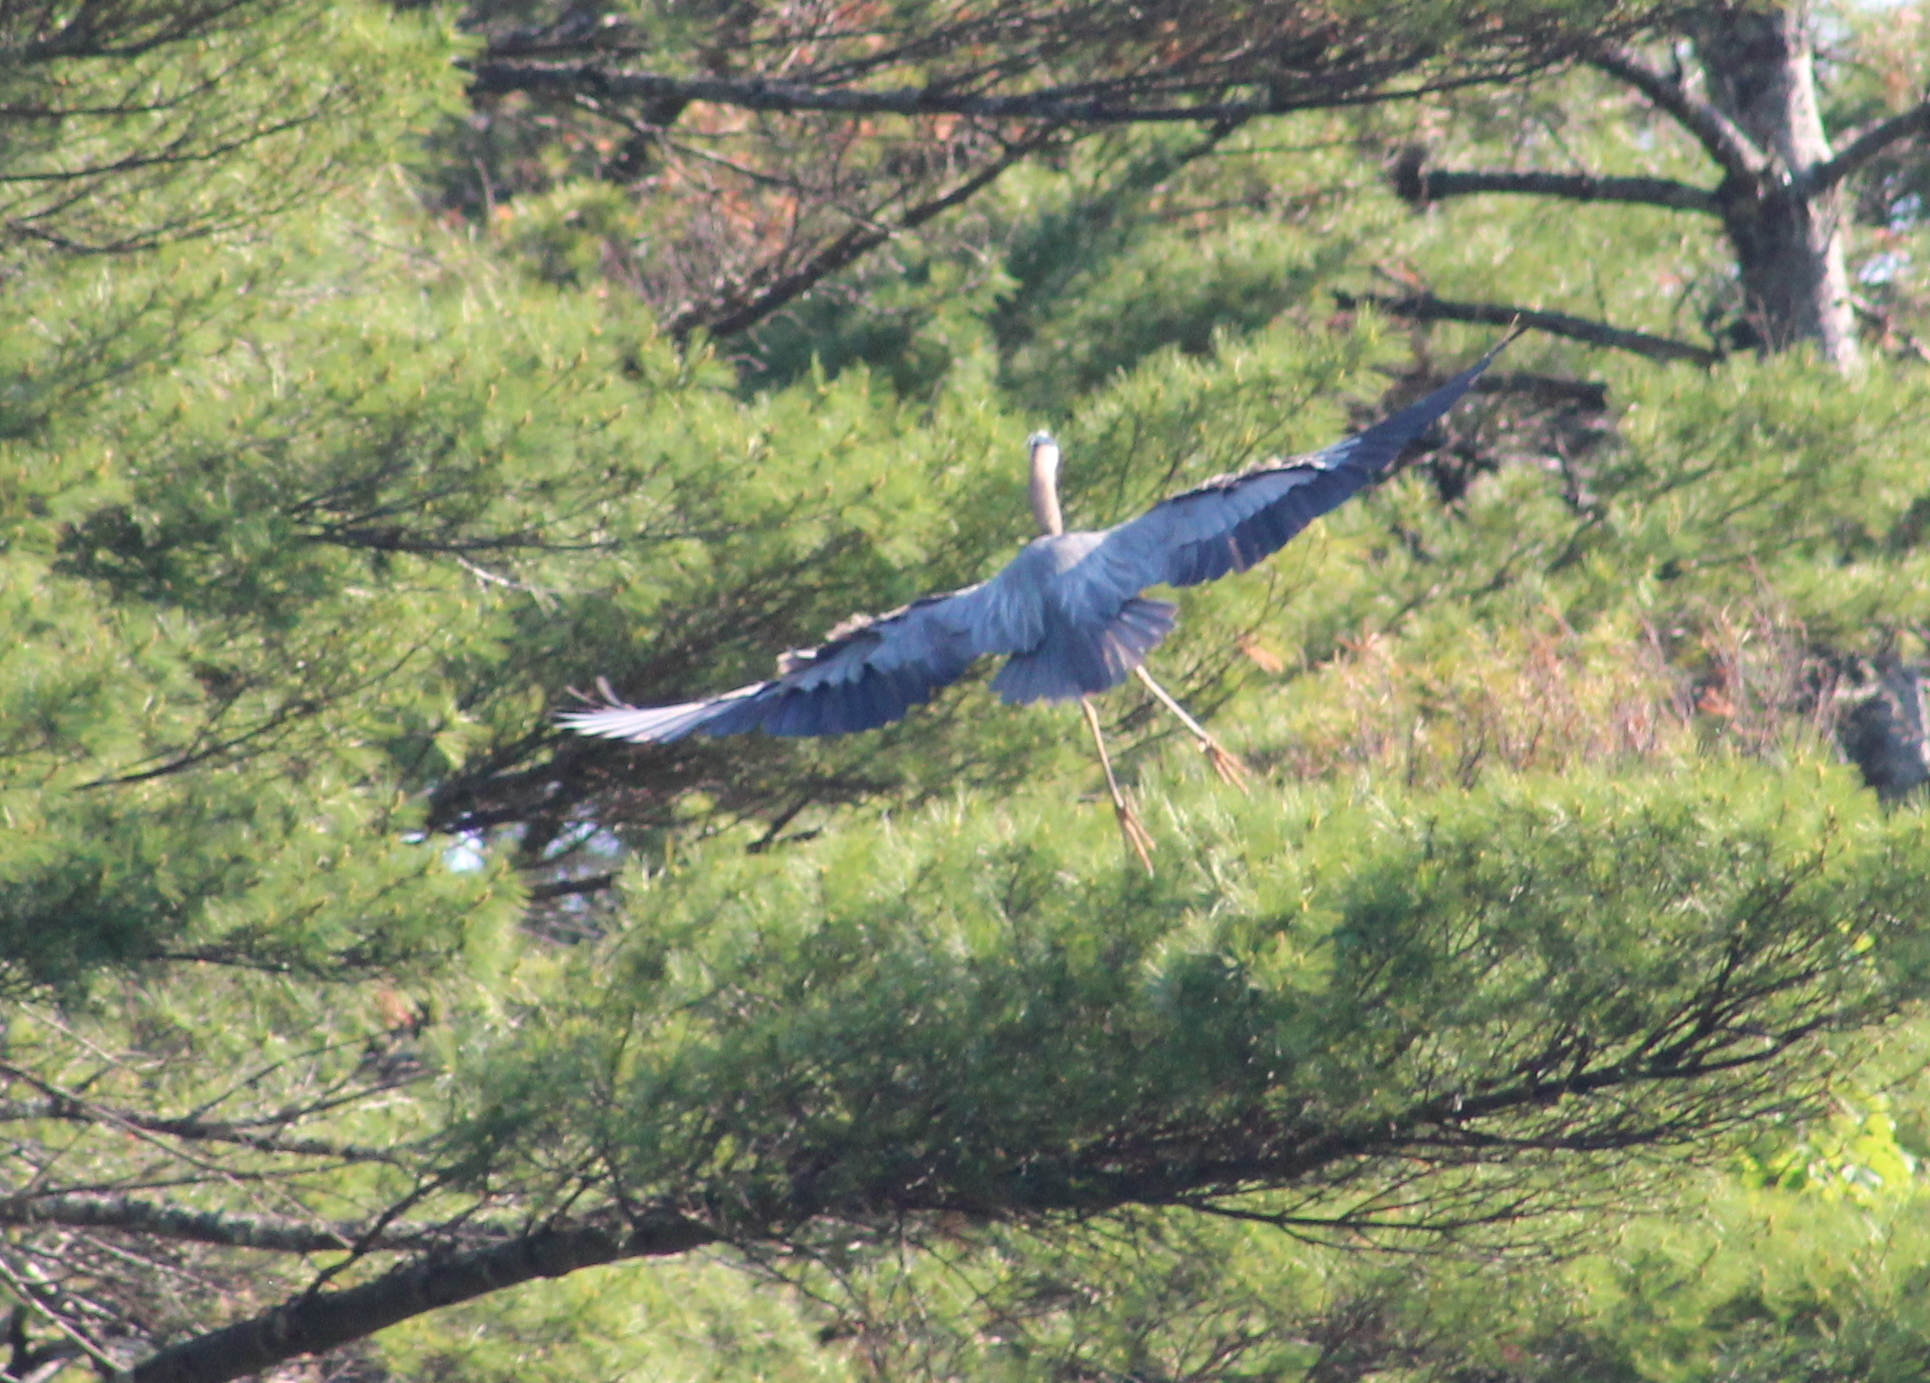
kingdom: Animalia
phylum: Chordata
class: Aves
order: Pelecaniformes
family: Ardeidae
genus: Ardea
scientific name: Ardea herodias
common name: Great blue heron
